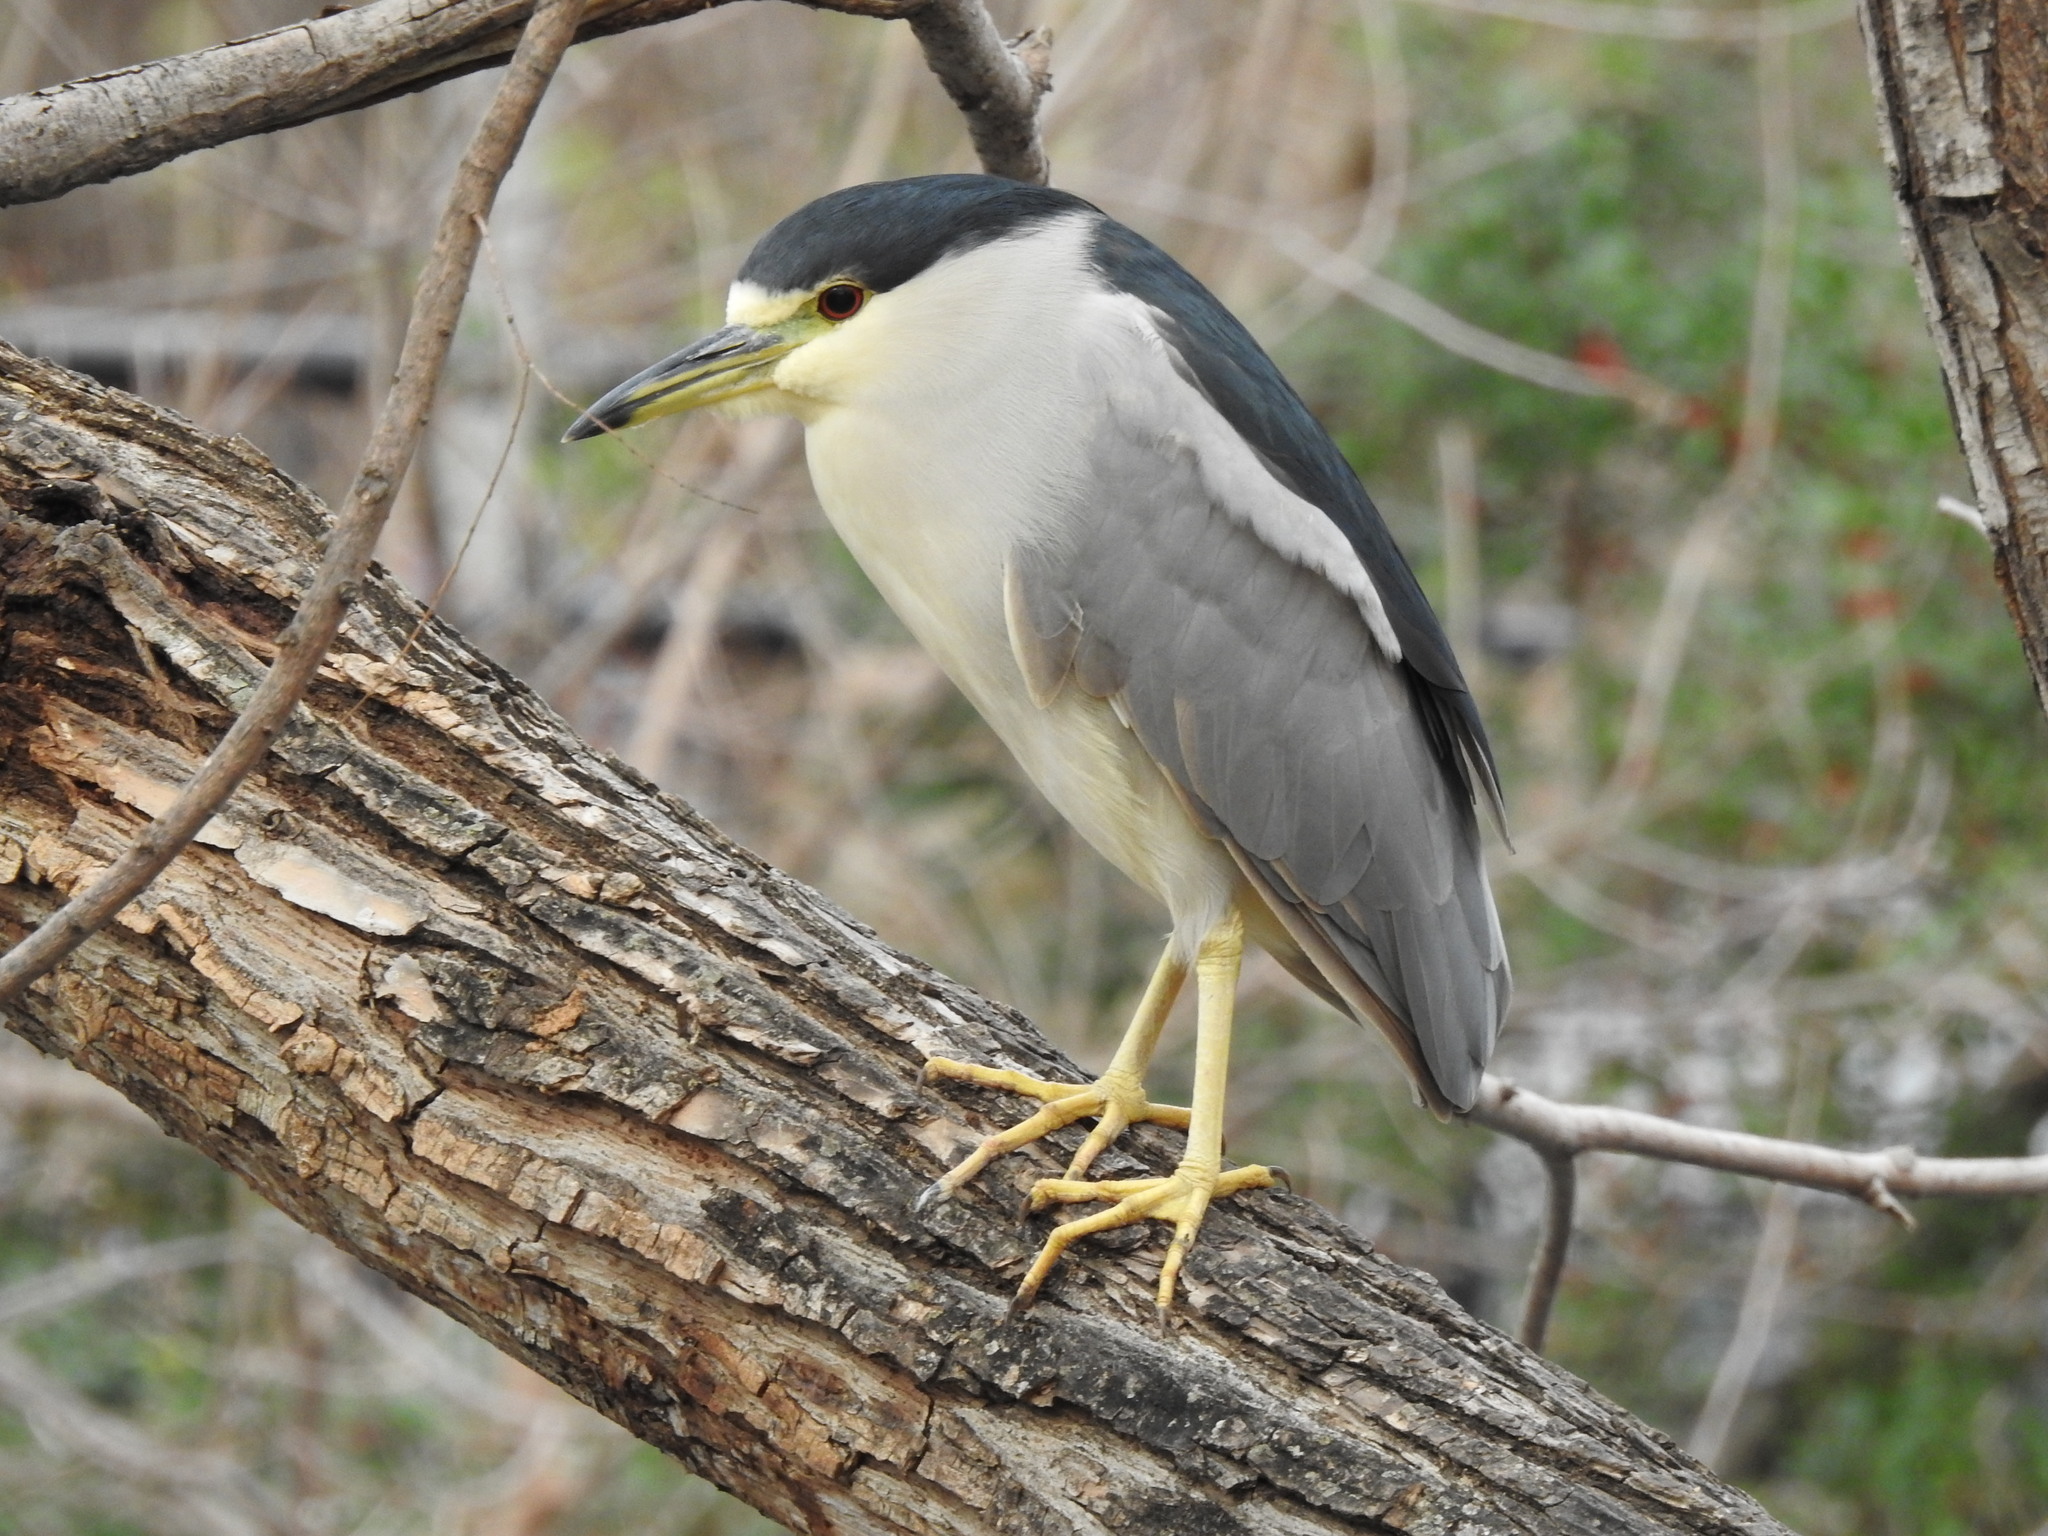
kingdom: Animalia
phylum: Chordata
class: Aves
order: Pelecaniformes
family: Ardeidae
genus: Nycticorax
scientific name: Nycticorax nycticorax
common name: Black-crowned night heron
